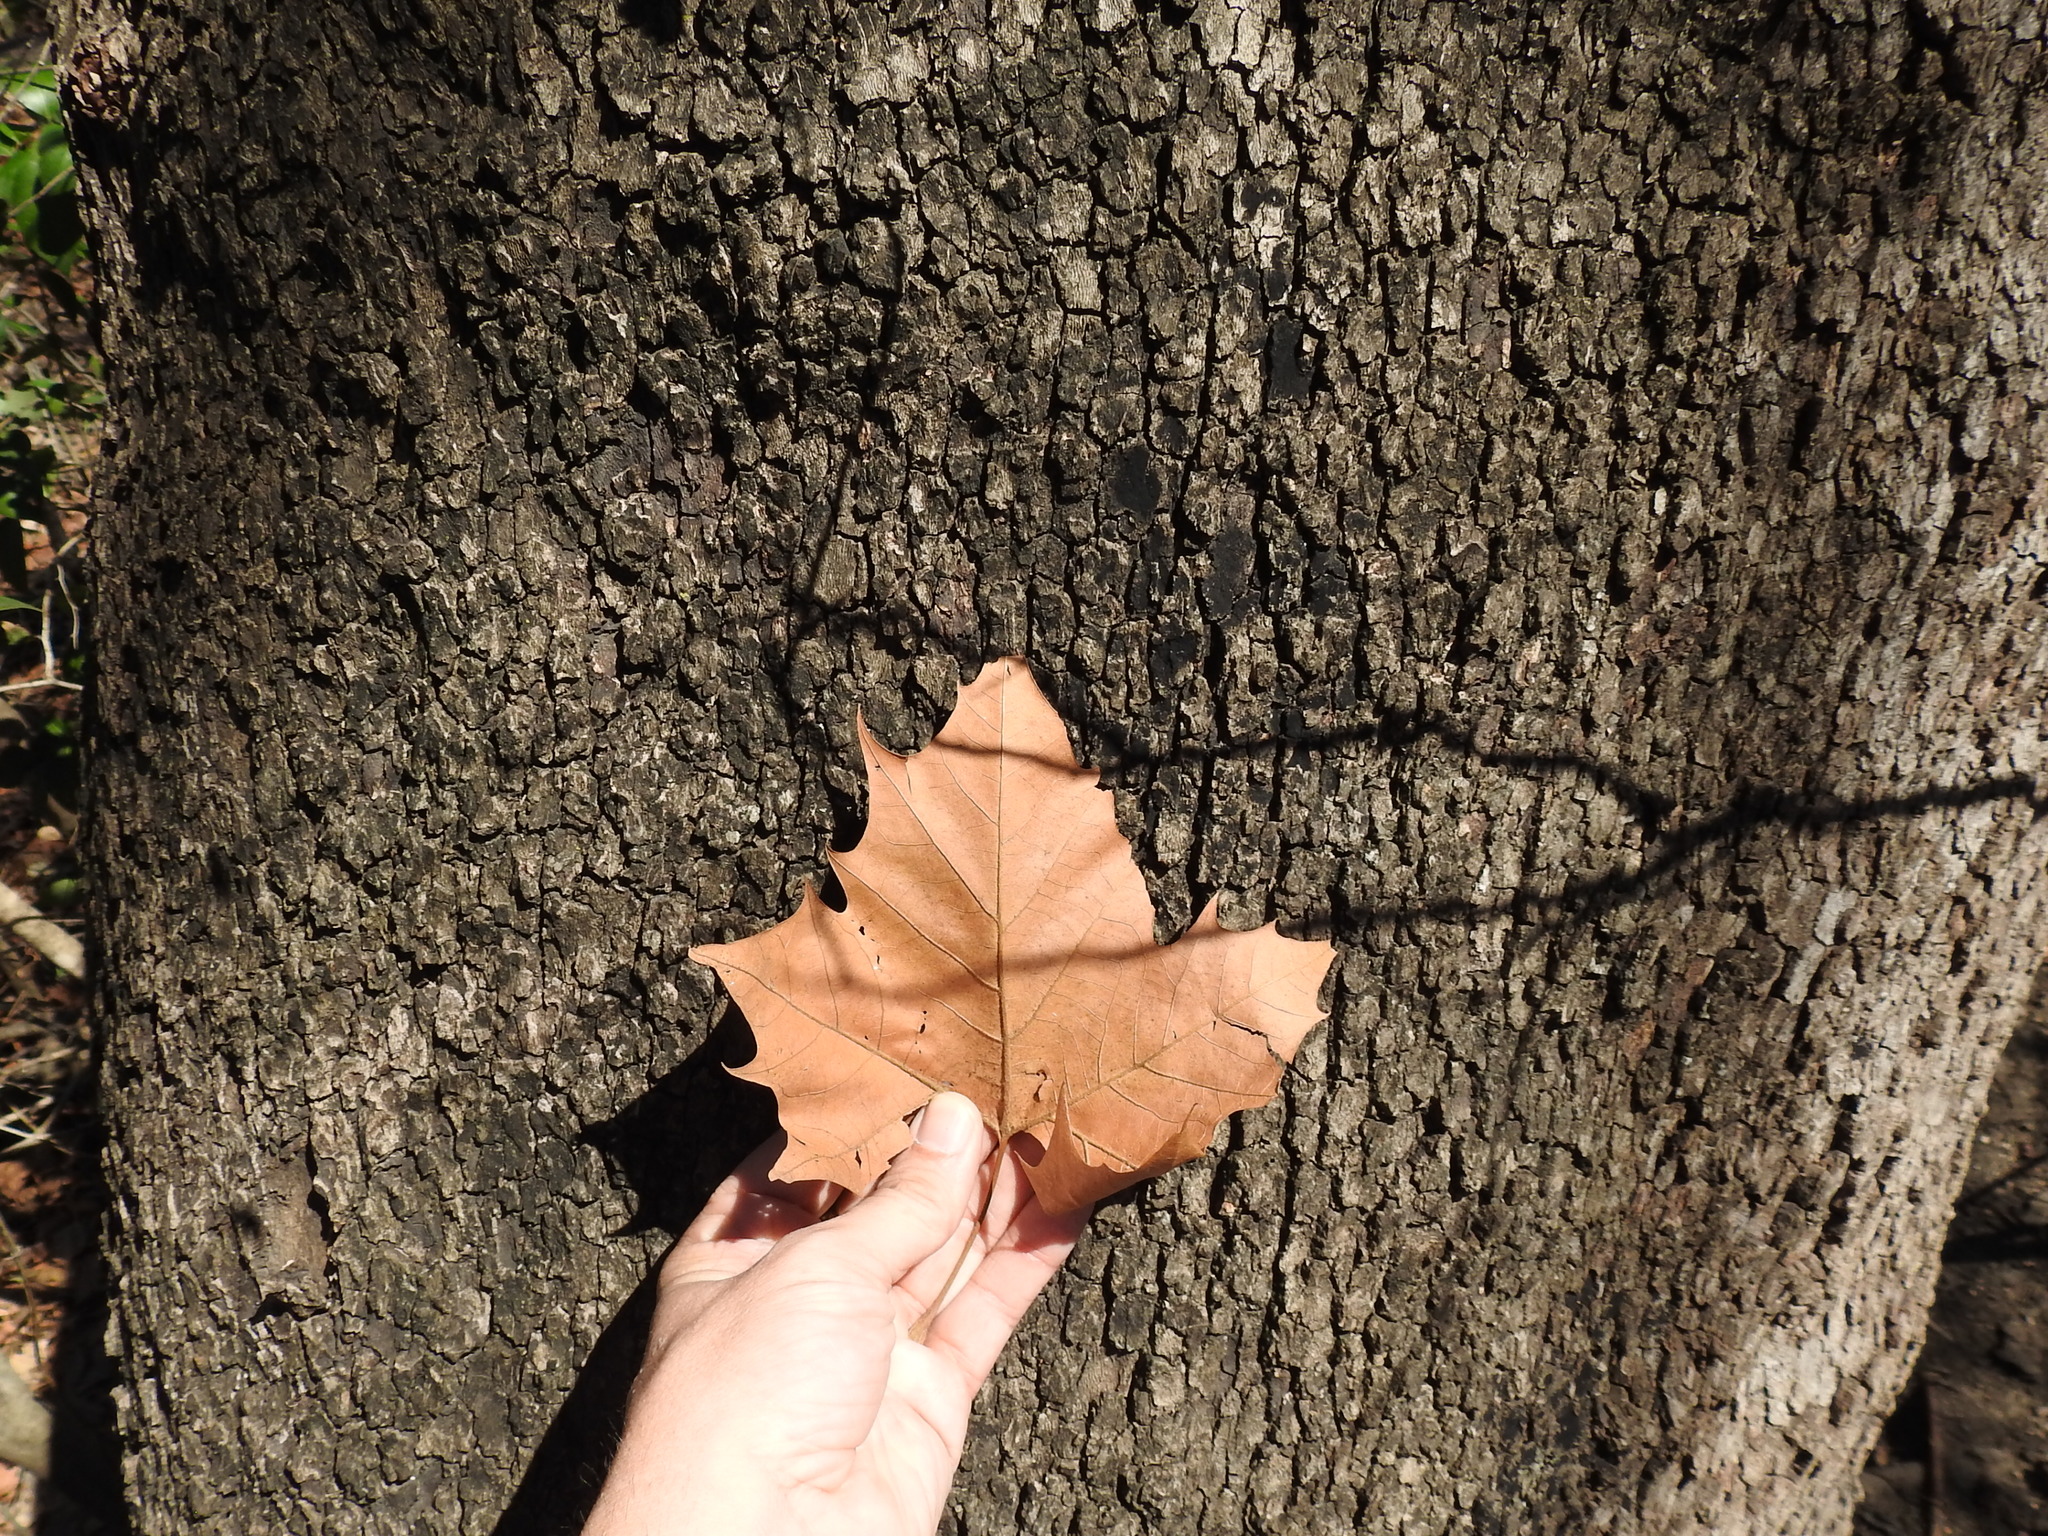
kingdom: Plantae
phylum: Tracheophyta
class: Magnoliopsida
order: Proteales
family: Platanaceae
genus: Platanus
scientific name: Platanus occidentalis
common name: American sycamore
